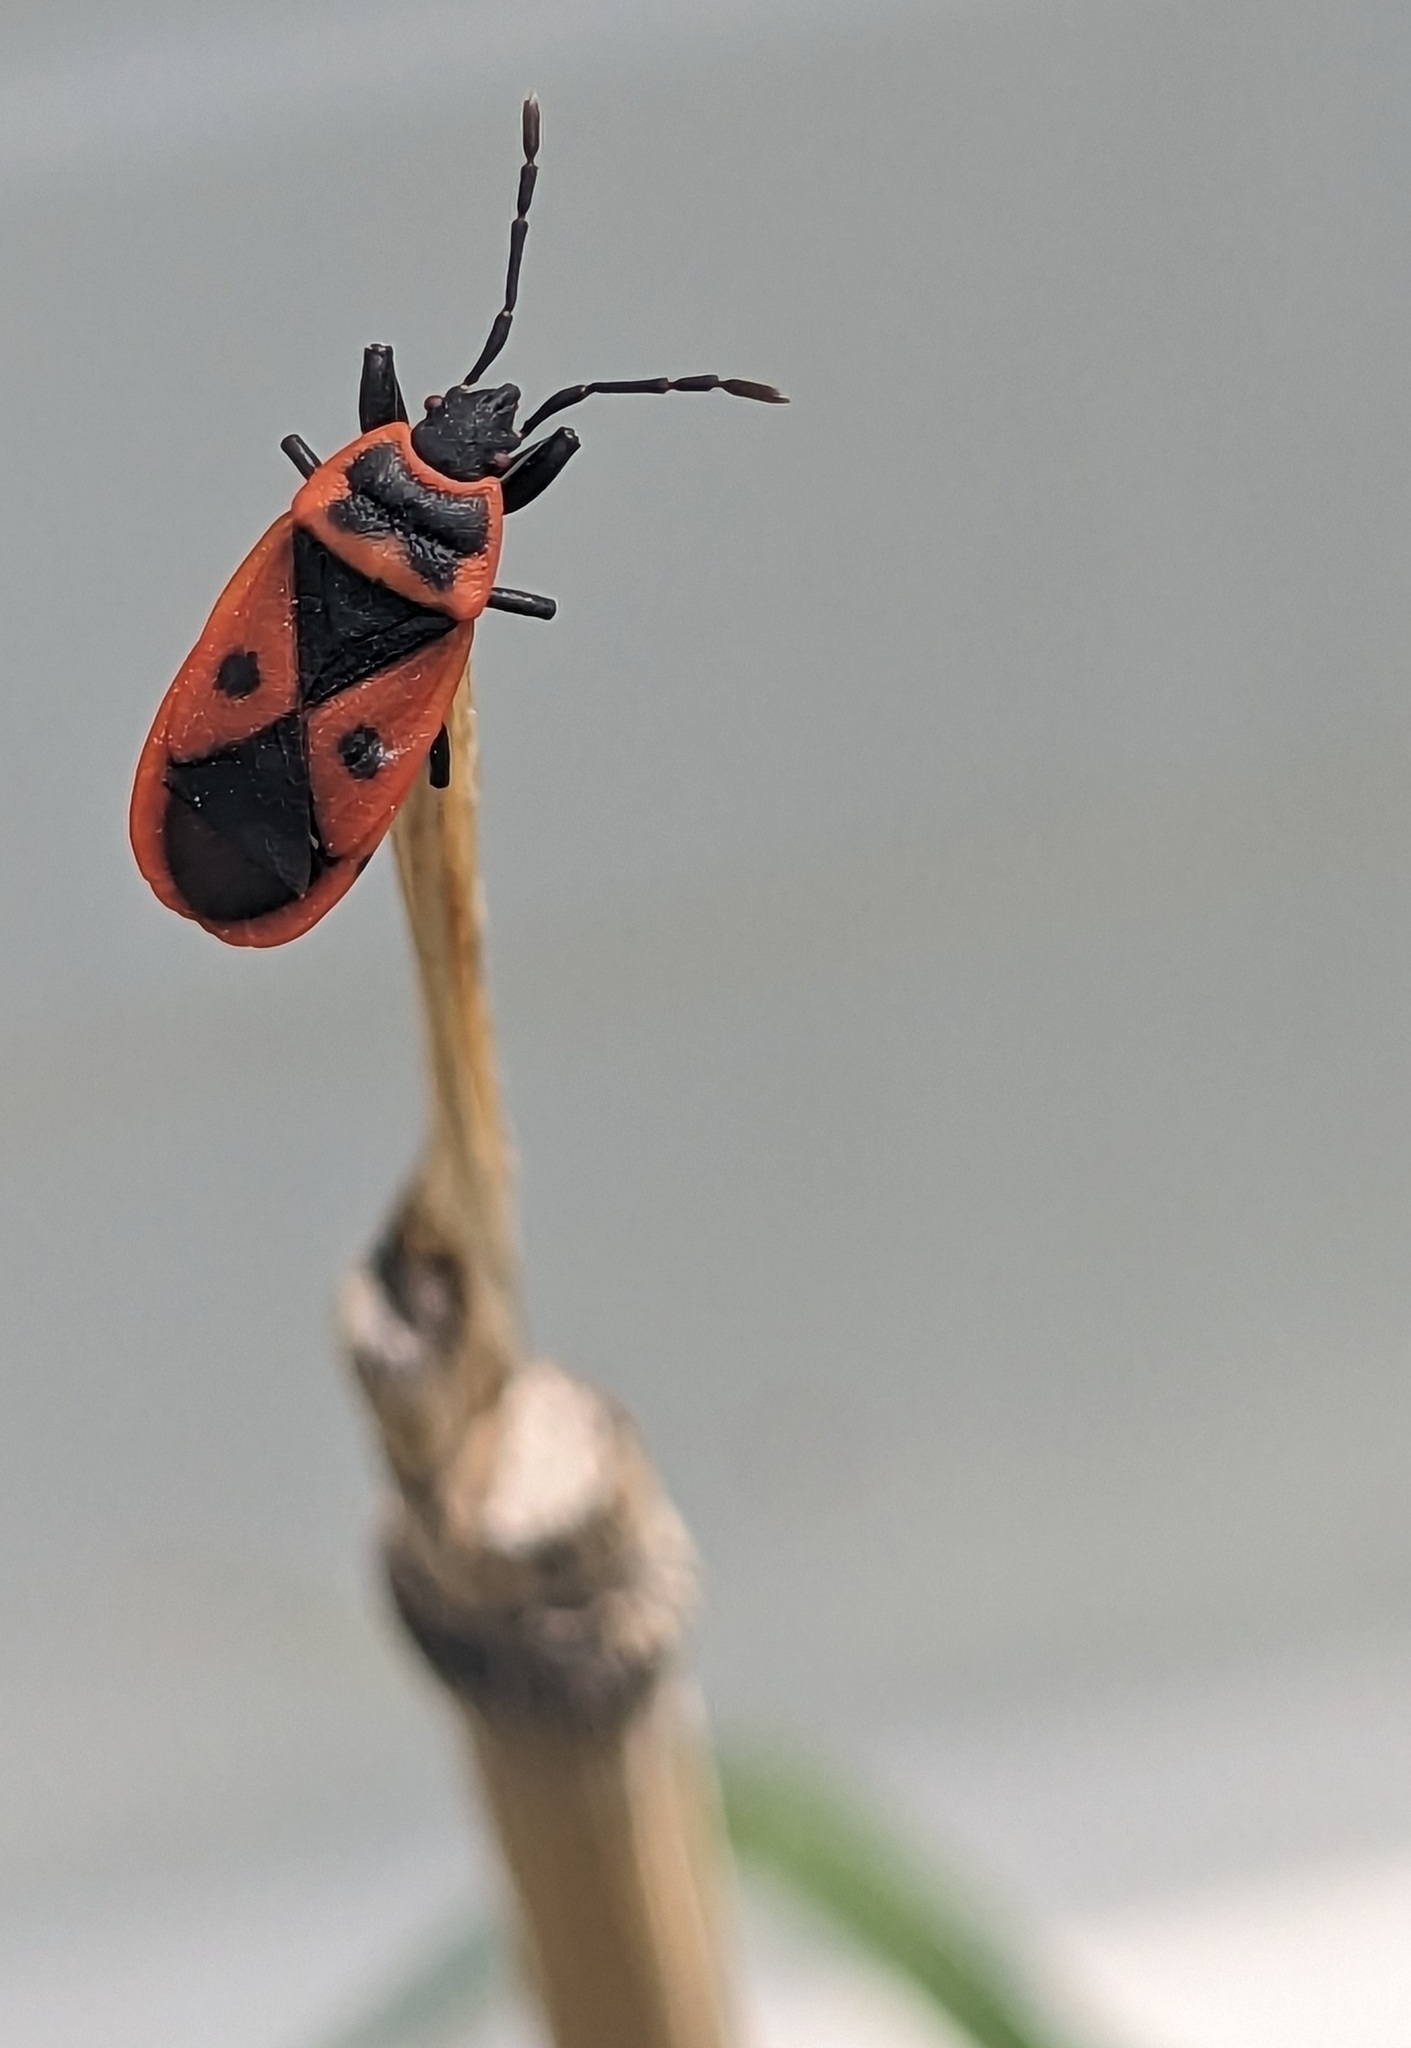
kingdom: Animalia
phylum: Arthropoda
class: Insecta
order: Hemiptera
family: Pyrrhocoridae
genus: Scantius
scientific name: Scantius aegyptius
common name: Red bug
